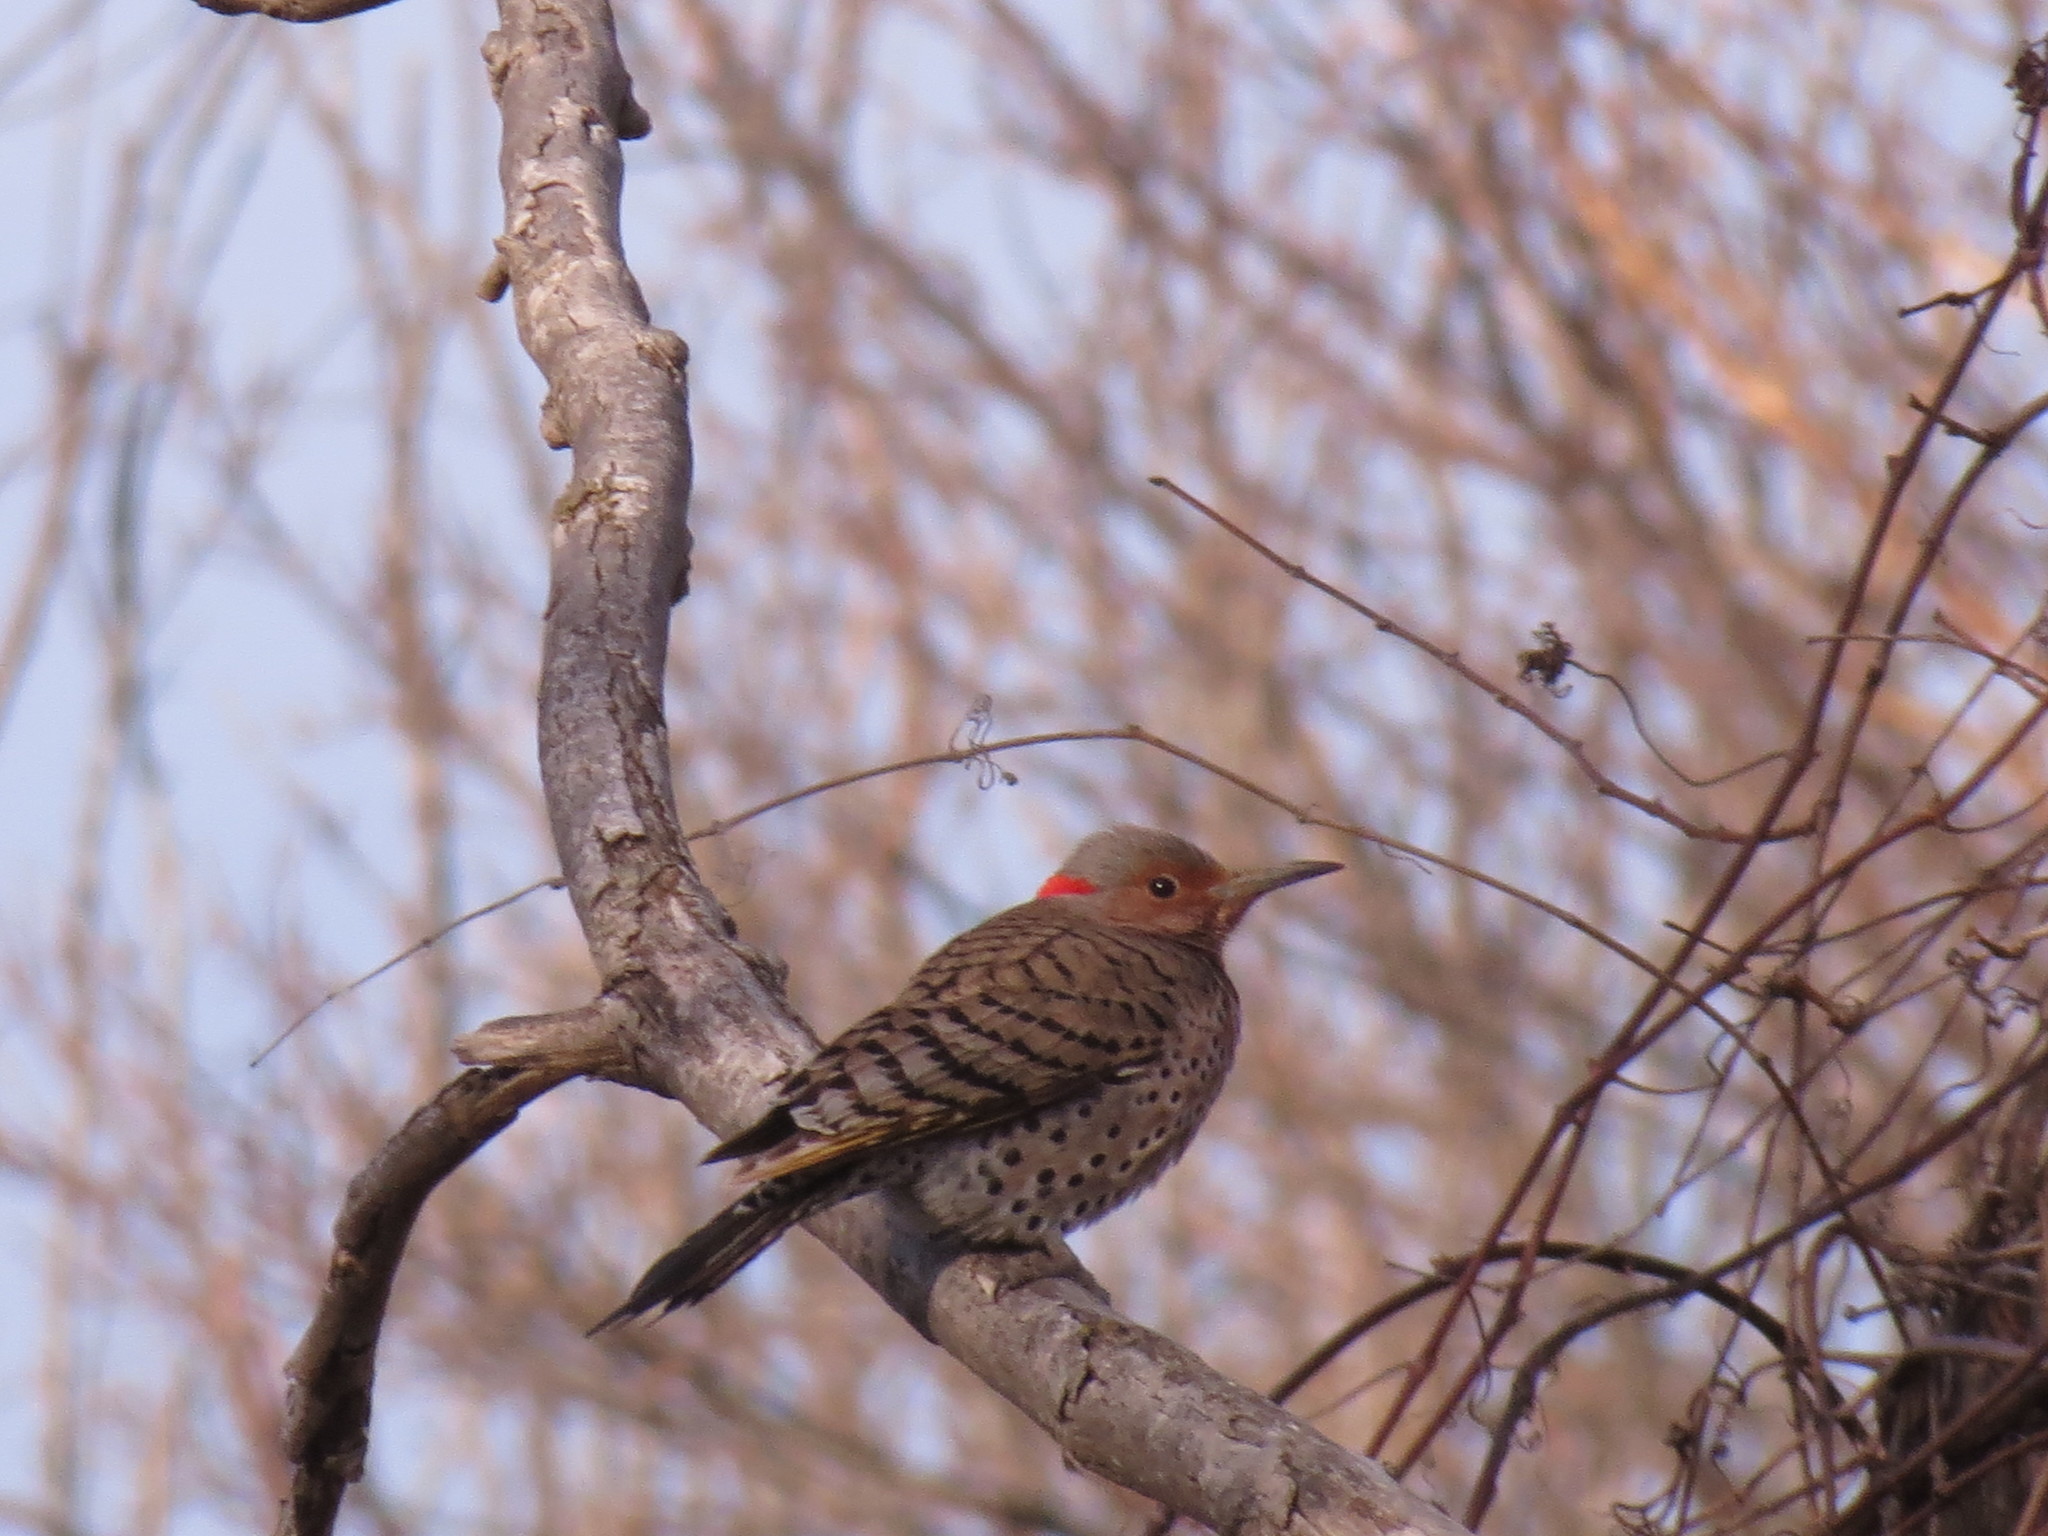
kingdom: Animalia
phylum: Chordata
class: Aves
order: Piciformes
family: Picidae
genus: Colaptes
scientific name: Colaptes auratus
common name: Northern flicker
